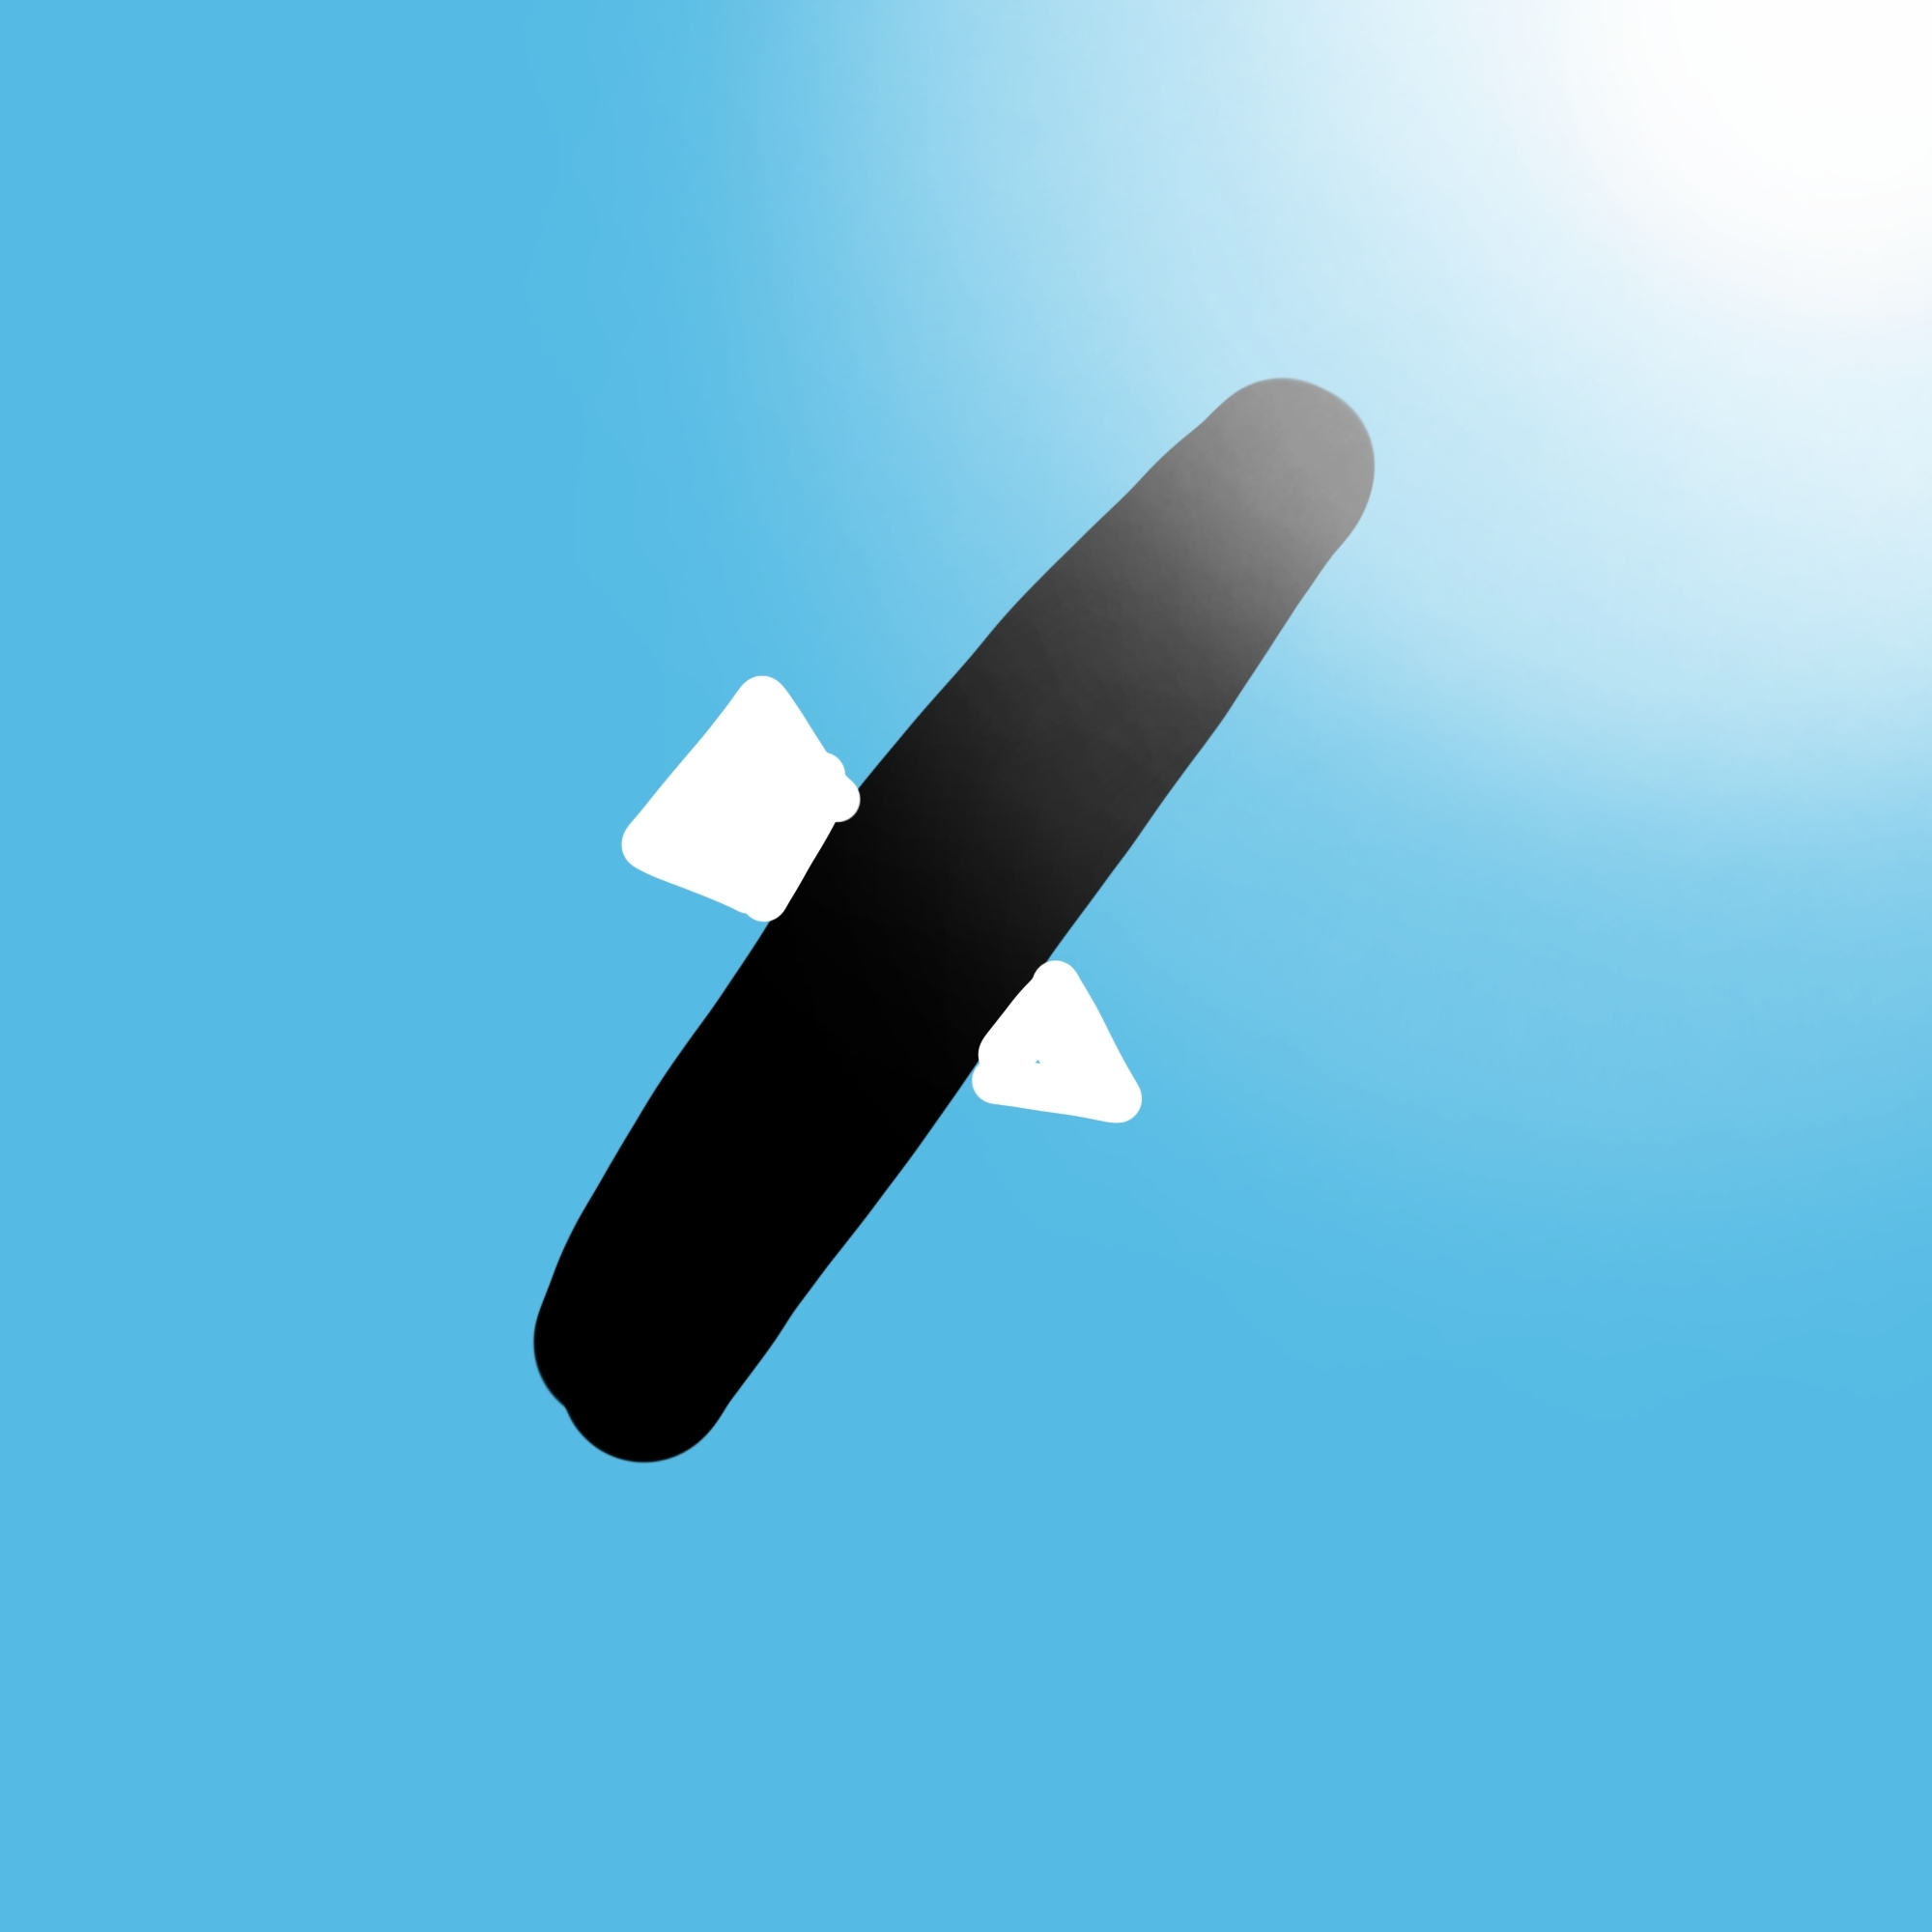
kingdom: Animalia
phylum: Chordata
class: Aves
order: Accipitriformes
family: Accipitridae
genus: Haliaeetus
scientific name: Haliaeetus leucocephalus
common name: Bald eagle
